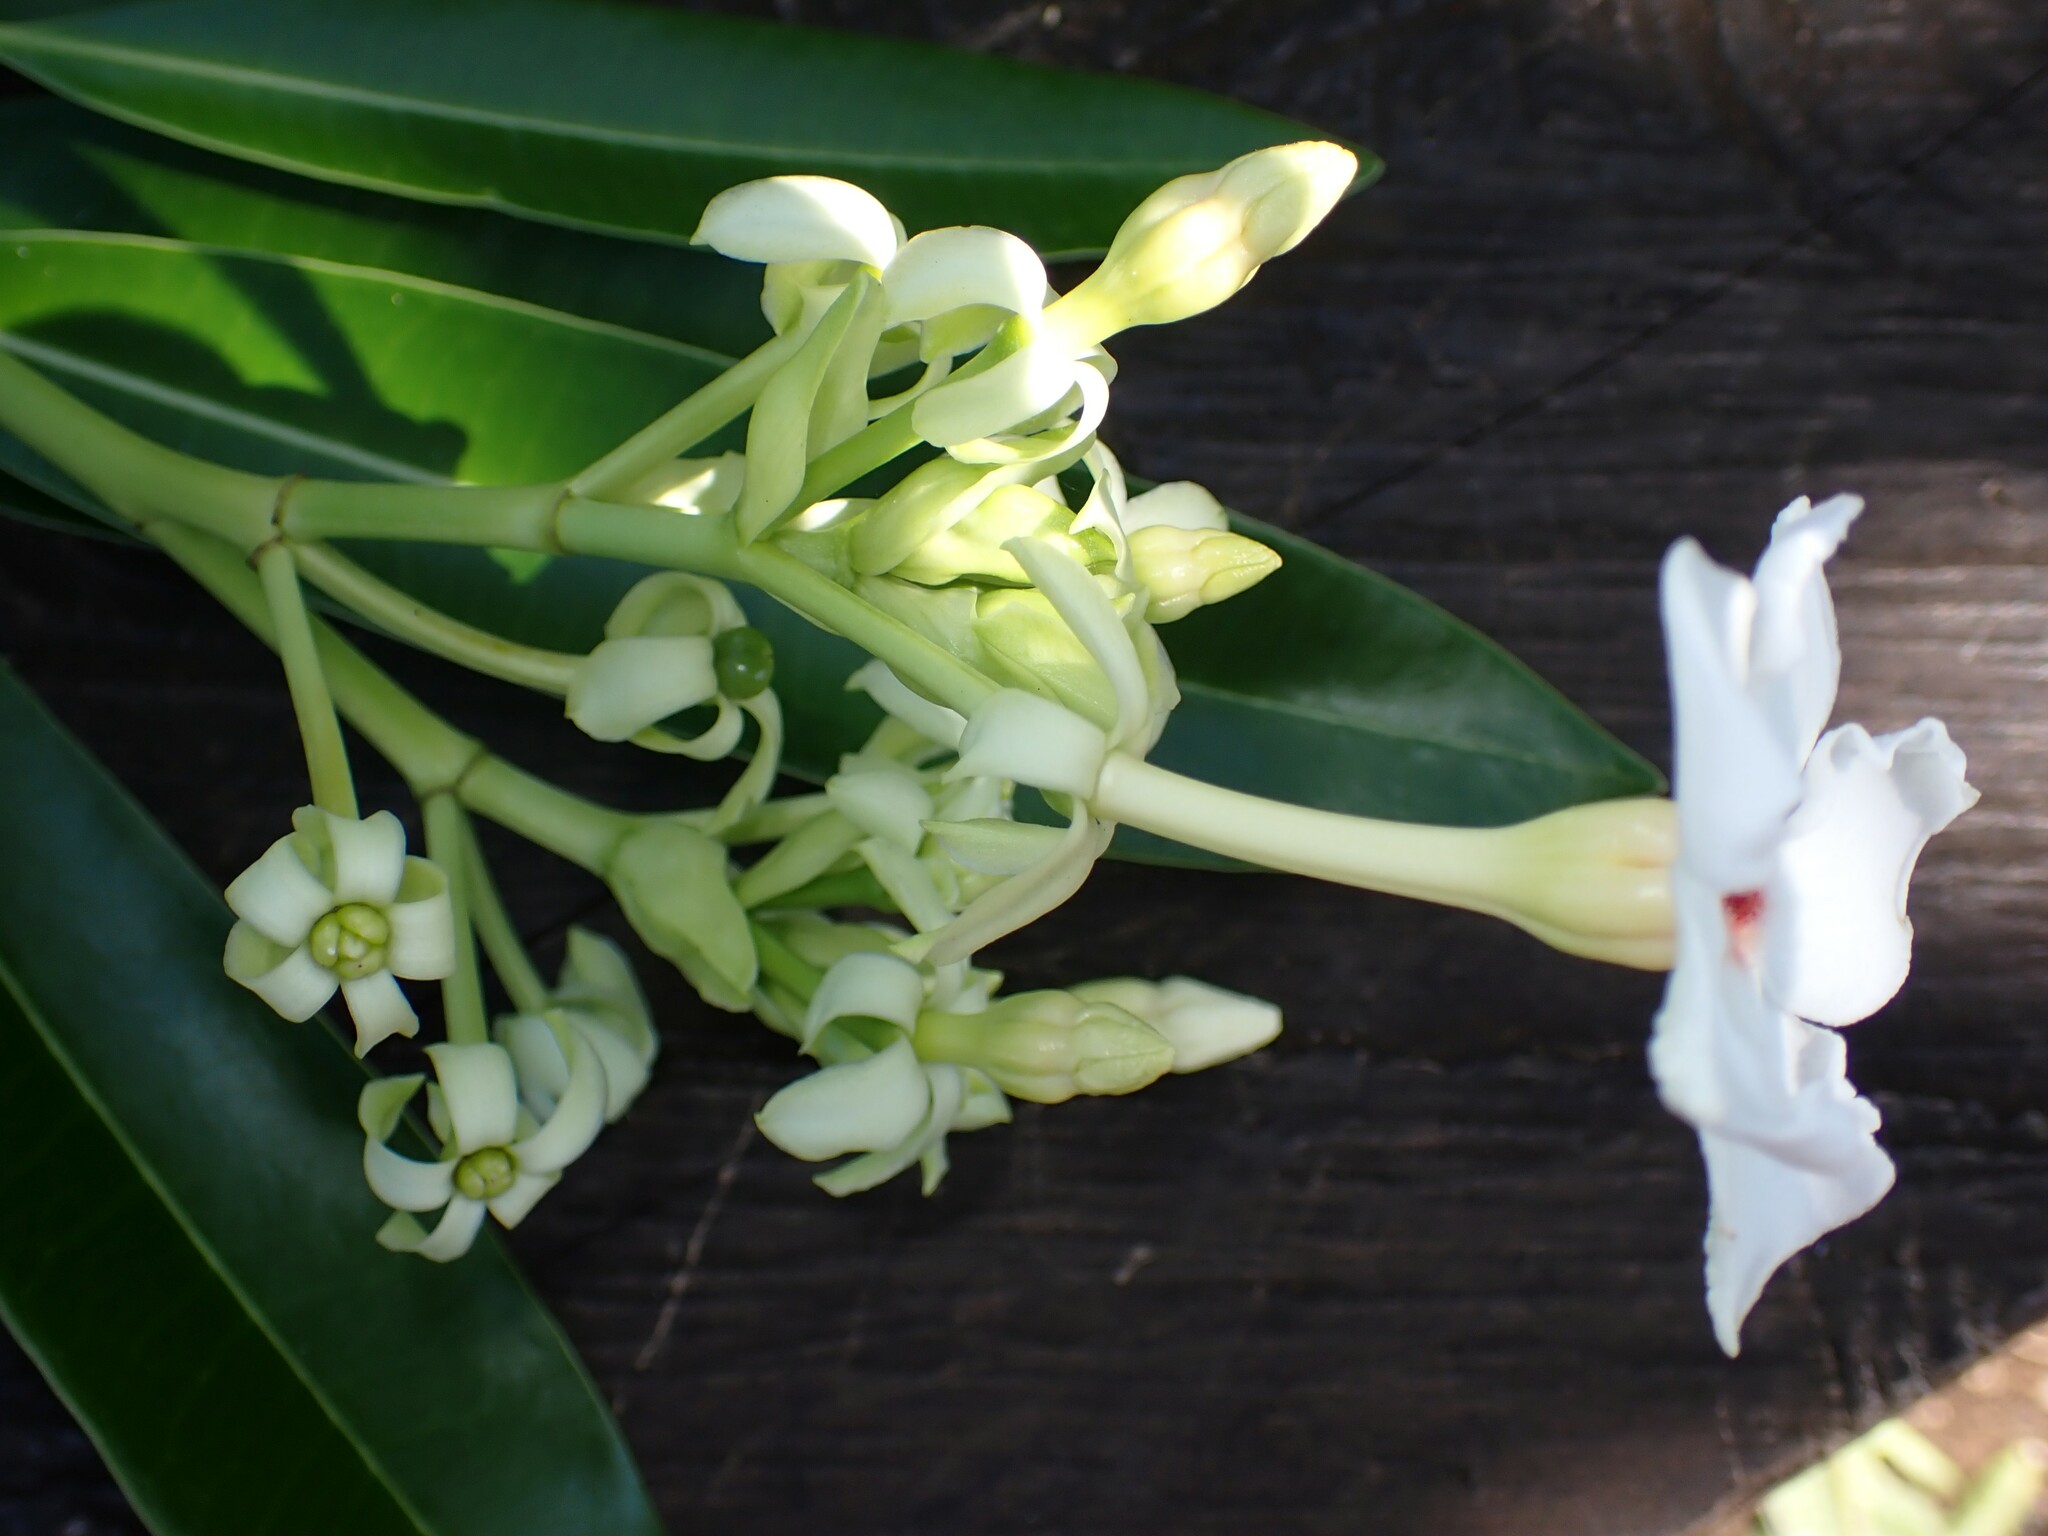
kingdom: Plantae
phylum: Tracheophyta
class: Magnoliopsida
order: Gentianales
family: Apocynaceae
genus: Cerbera
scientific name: Cerbera manghas
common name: Reva
